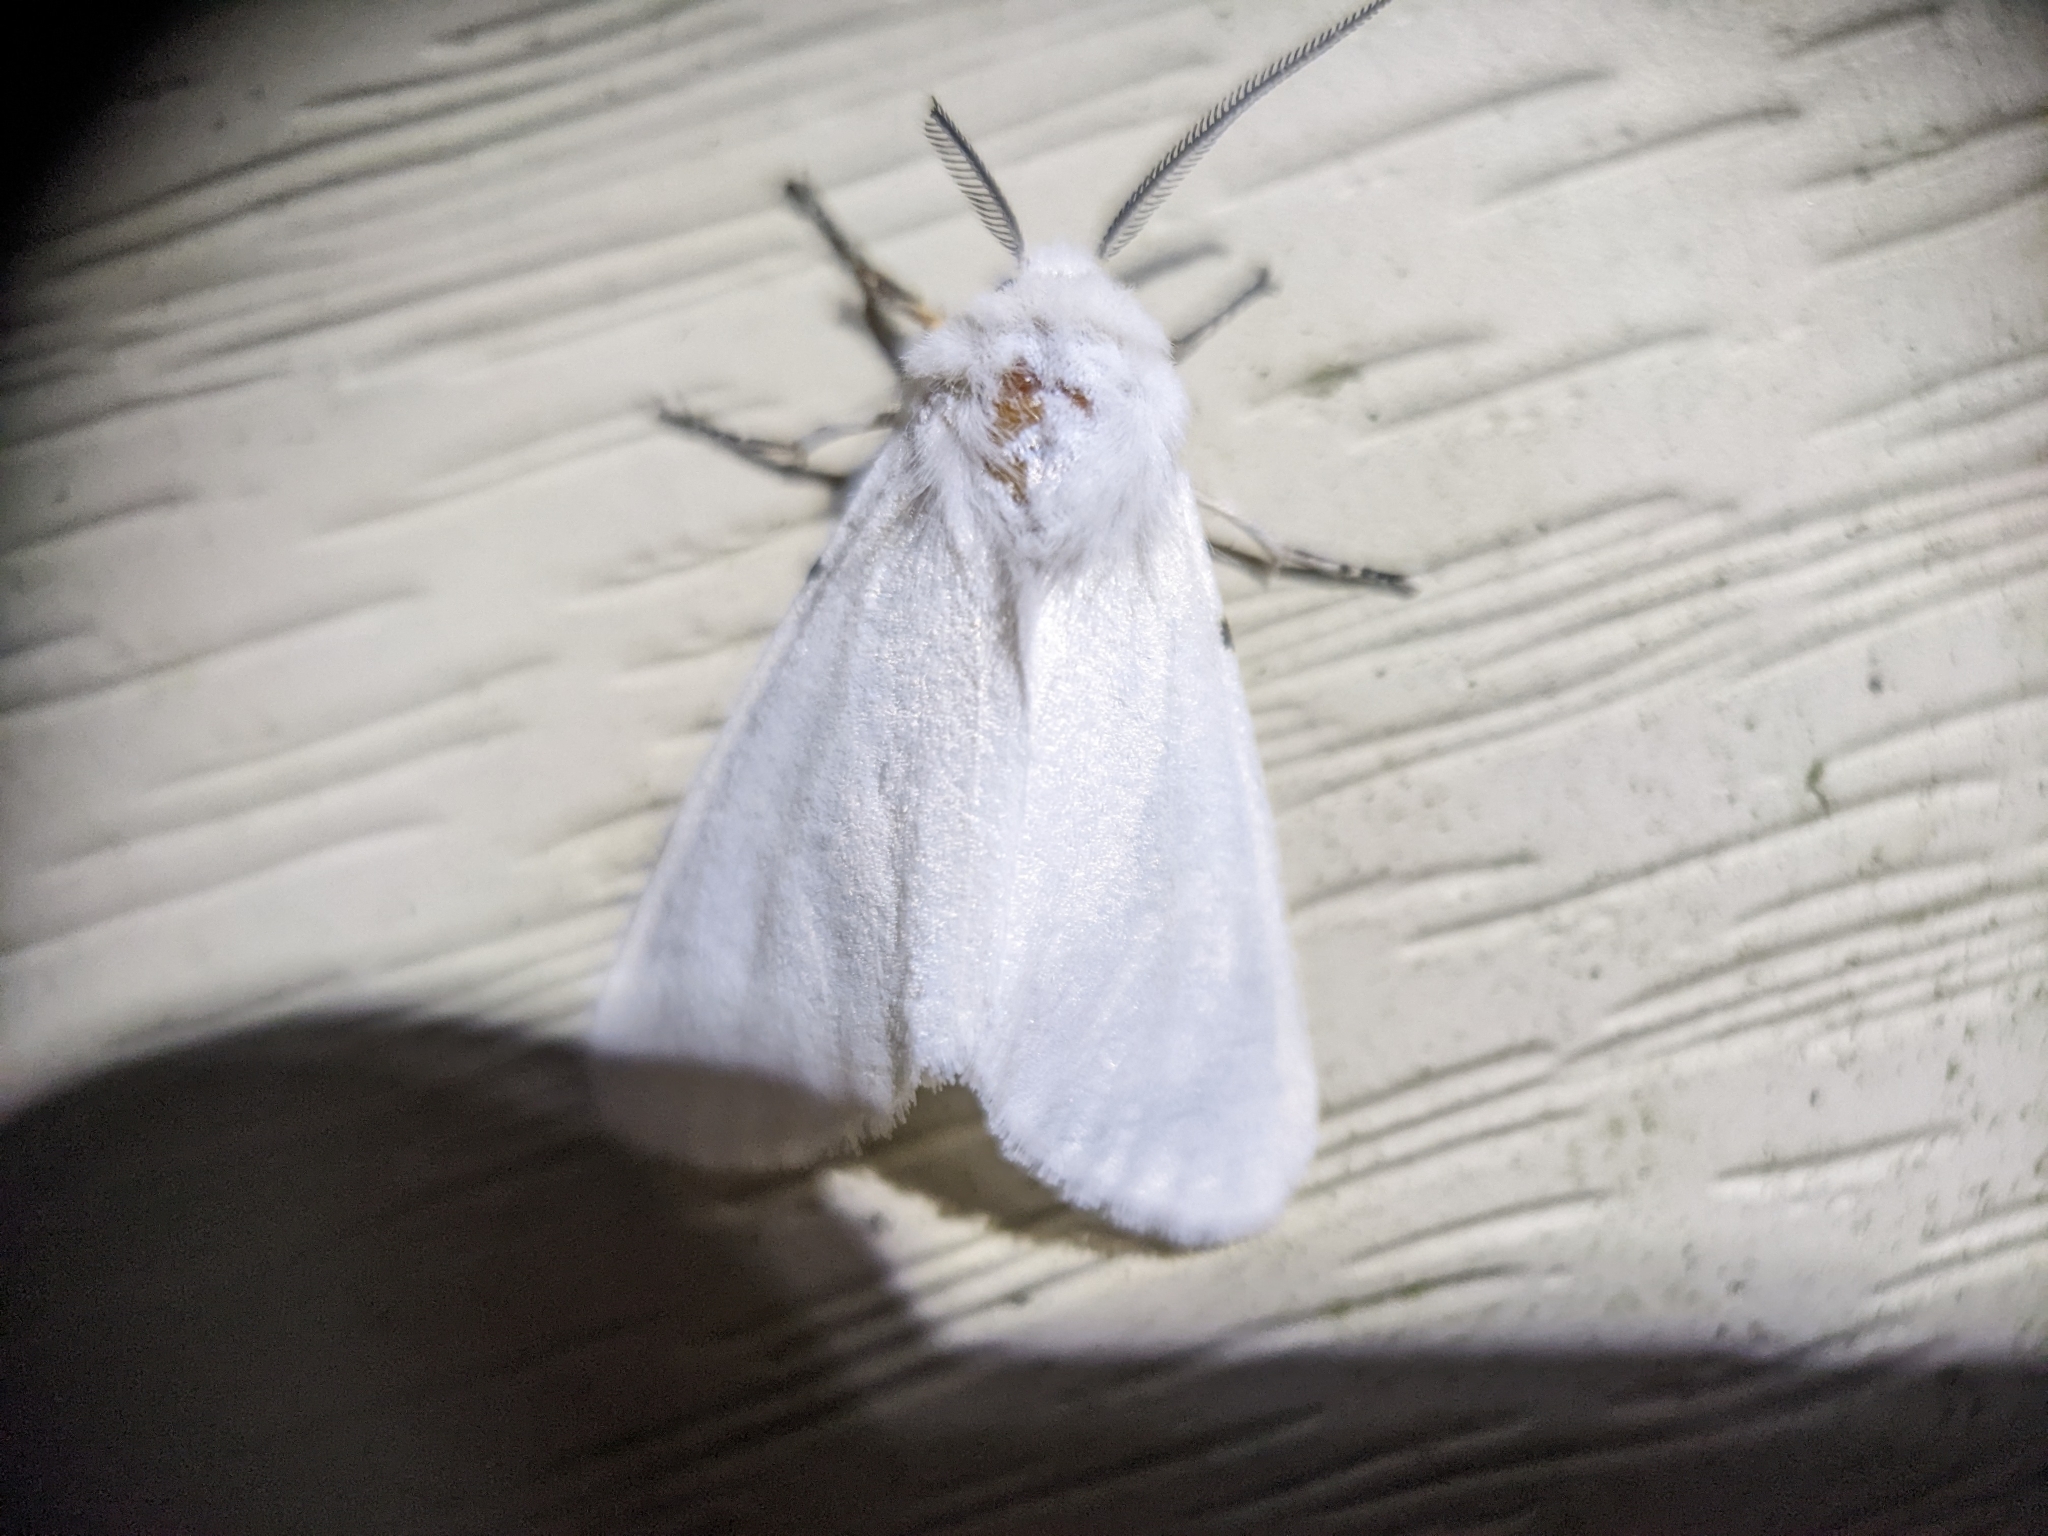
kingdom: Animalia
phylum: Arthropoda
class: Insecta
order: Lepidoptera
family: Erebidae
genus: Hyphantria
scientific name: Hyphantria cunea
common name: American white moth
